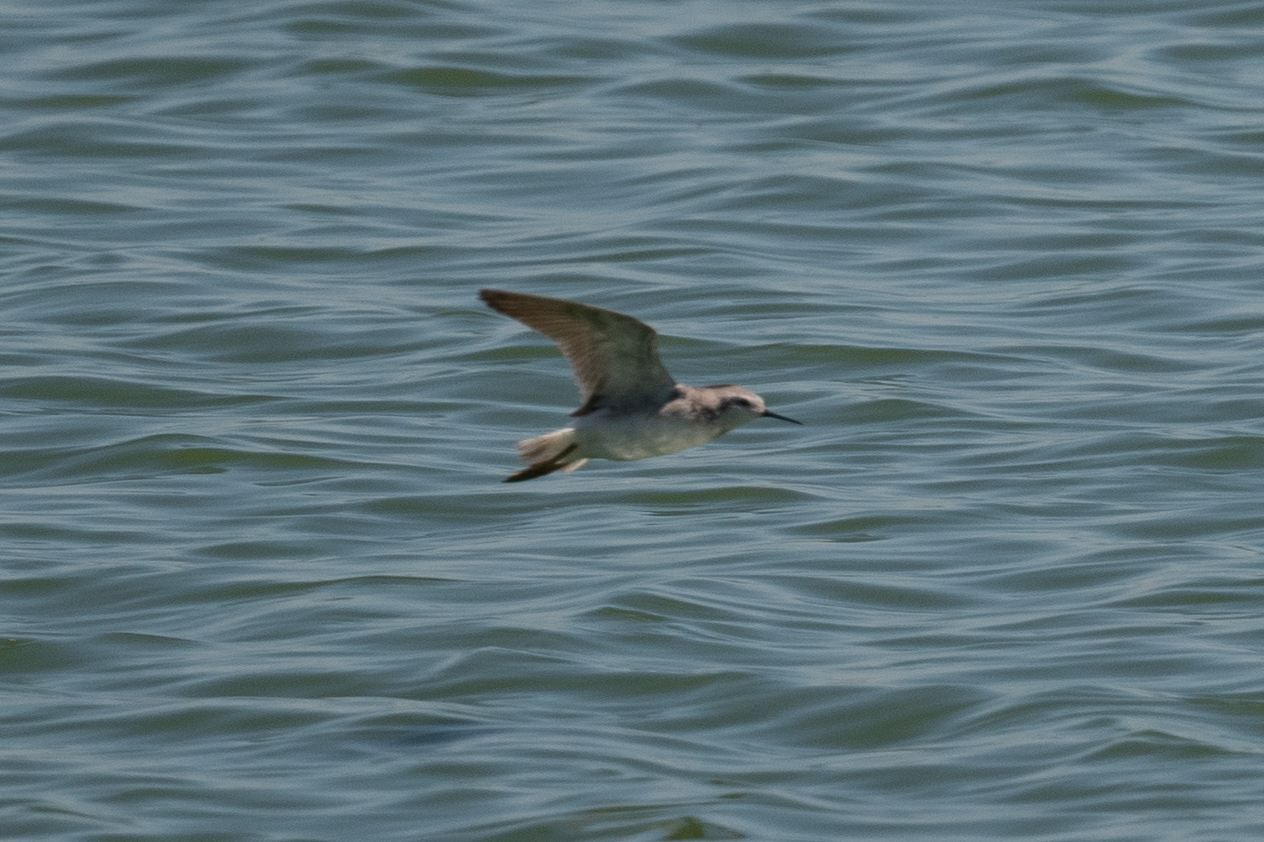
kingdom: Animalia
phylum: Chordata
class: Aves
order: Charadriiformes
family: Scolopacidae
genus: Phalaropus
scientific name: Phalaropus tricolor
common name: Wilson's phalarope
